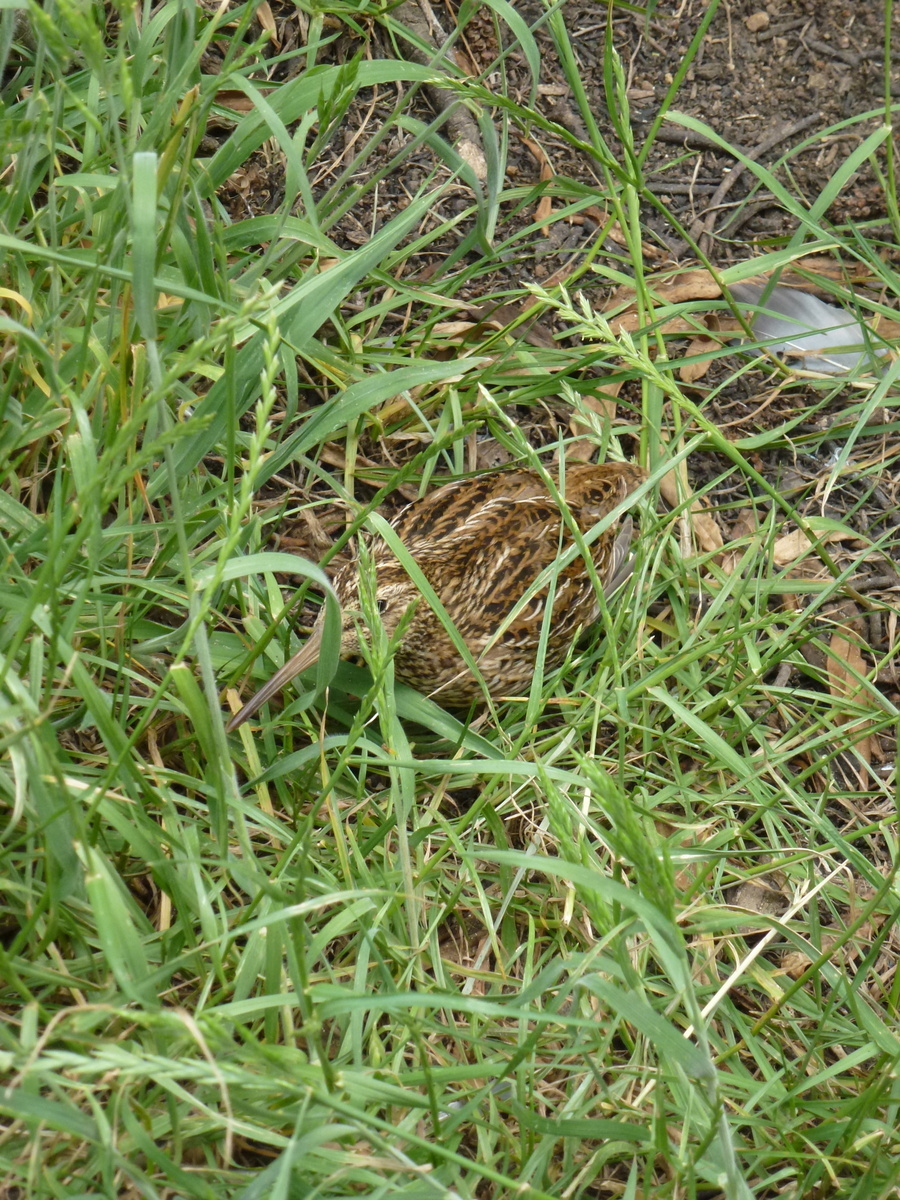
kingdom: Animalia
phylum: Chordata
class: Aves
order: Charadriiformes
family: Scolopacidae
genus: Coenocorypha
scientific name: Coenocorypha pusilla
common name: Chatham snipe
